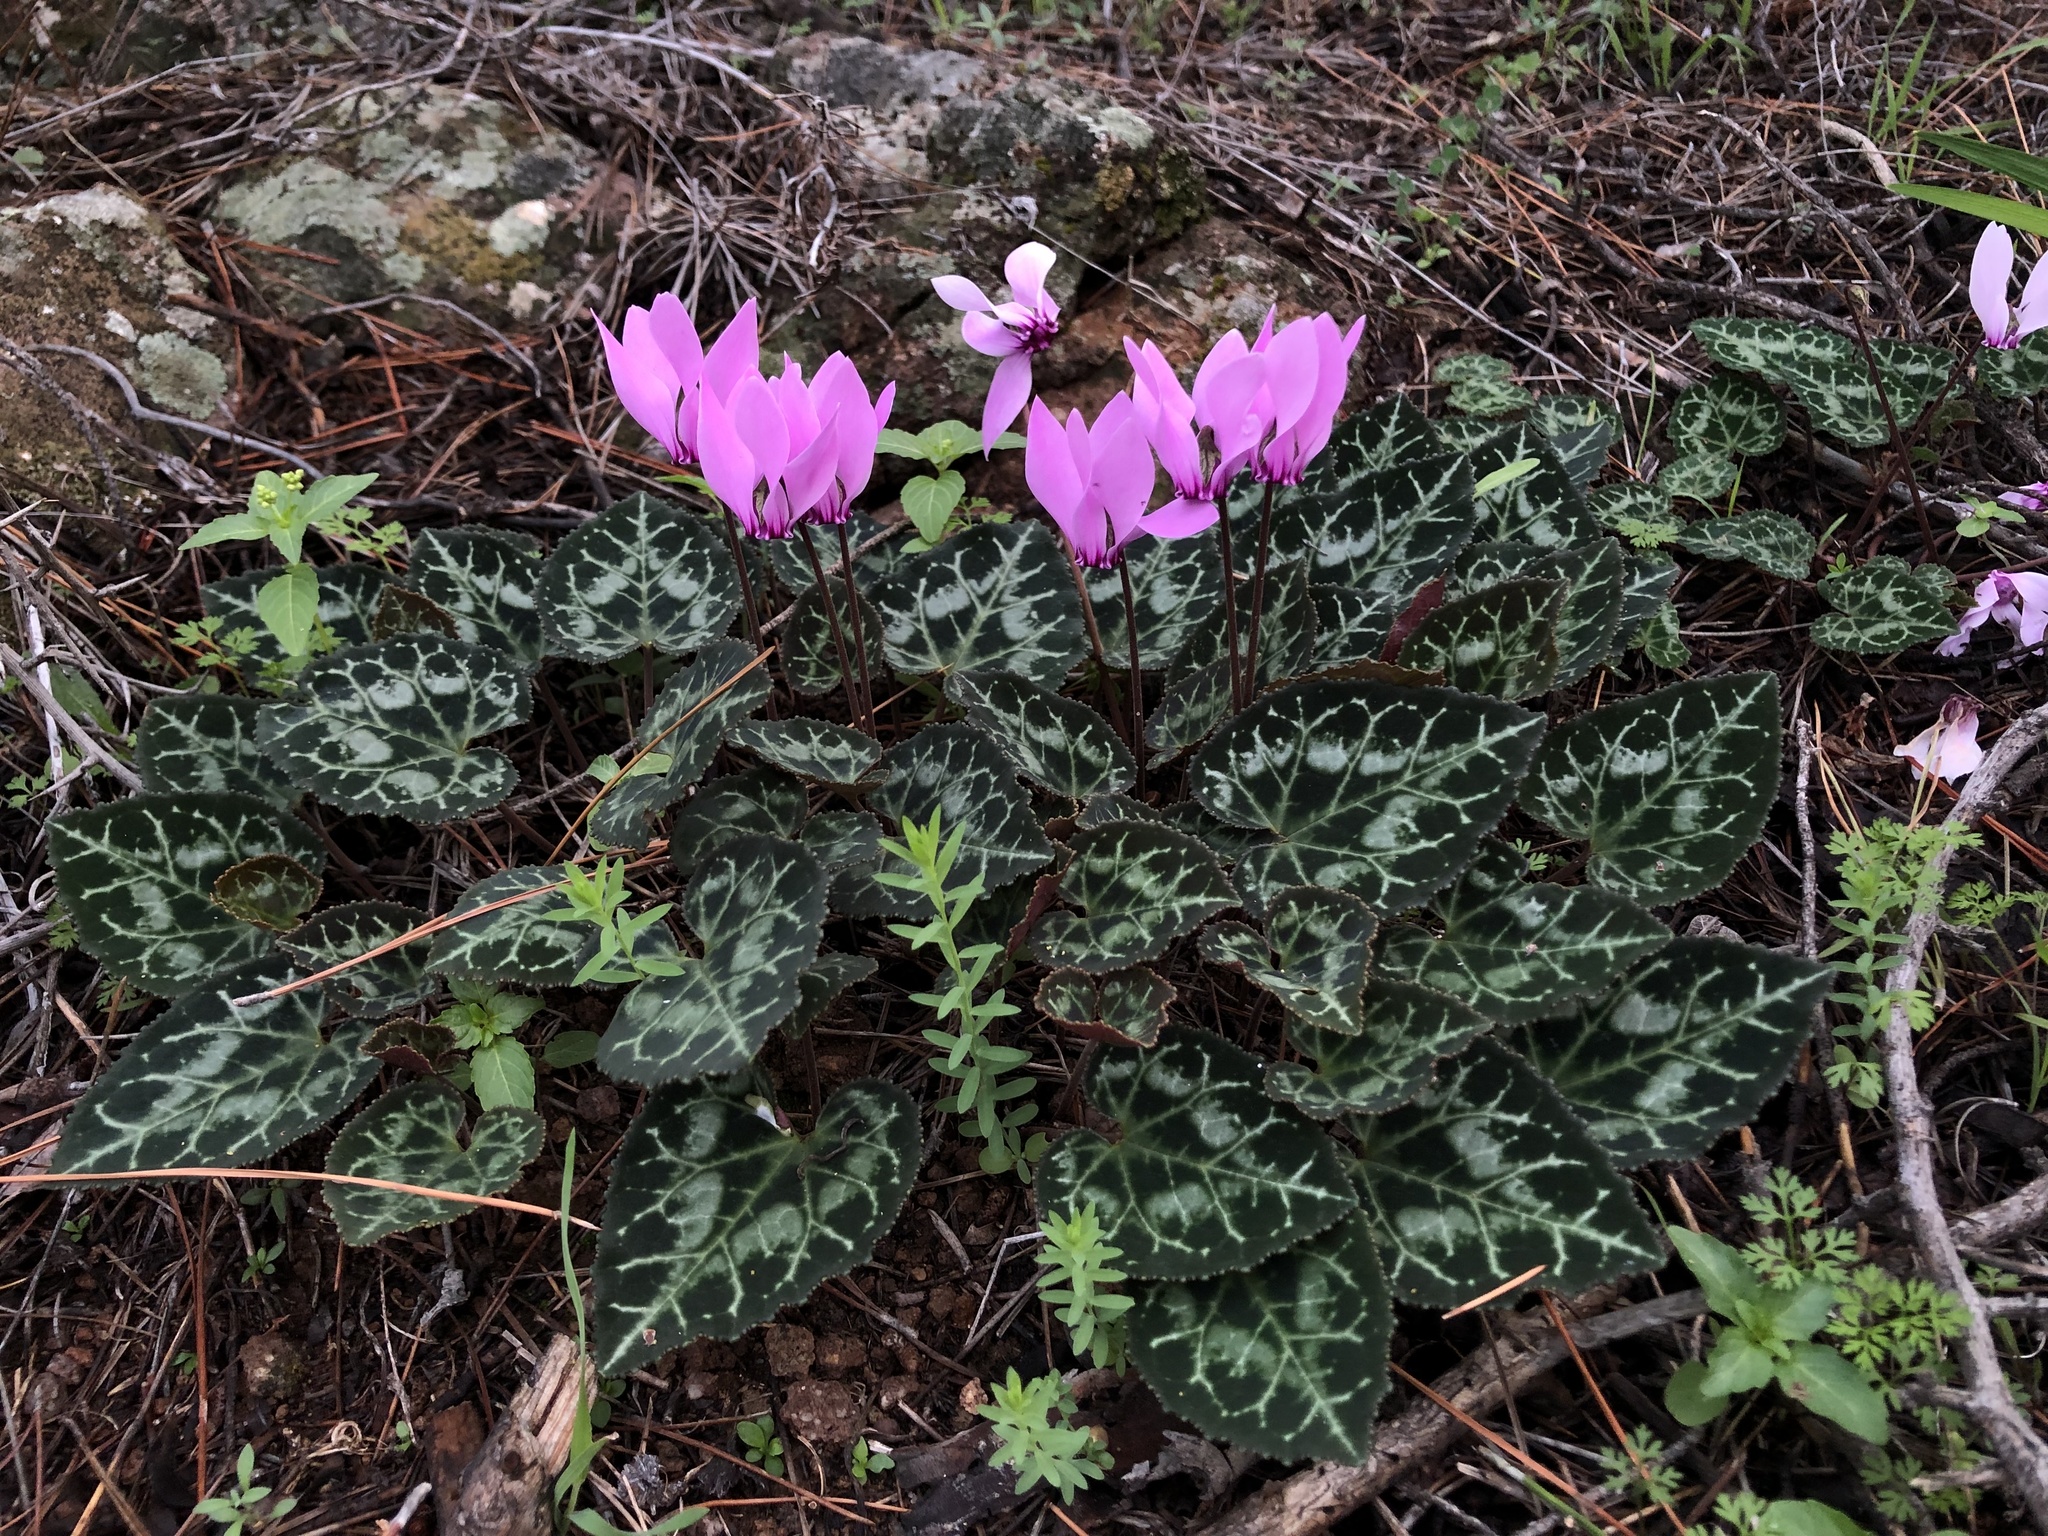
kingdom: Plantae
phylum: Tracheophyta
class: Magnoliopsida
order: Ericales
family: Primulaceae
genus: Cyclamen
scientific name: Cyclamen graecum
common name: Greek cyclamen
